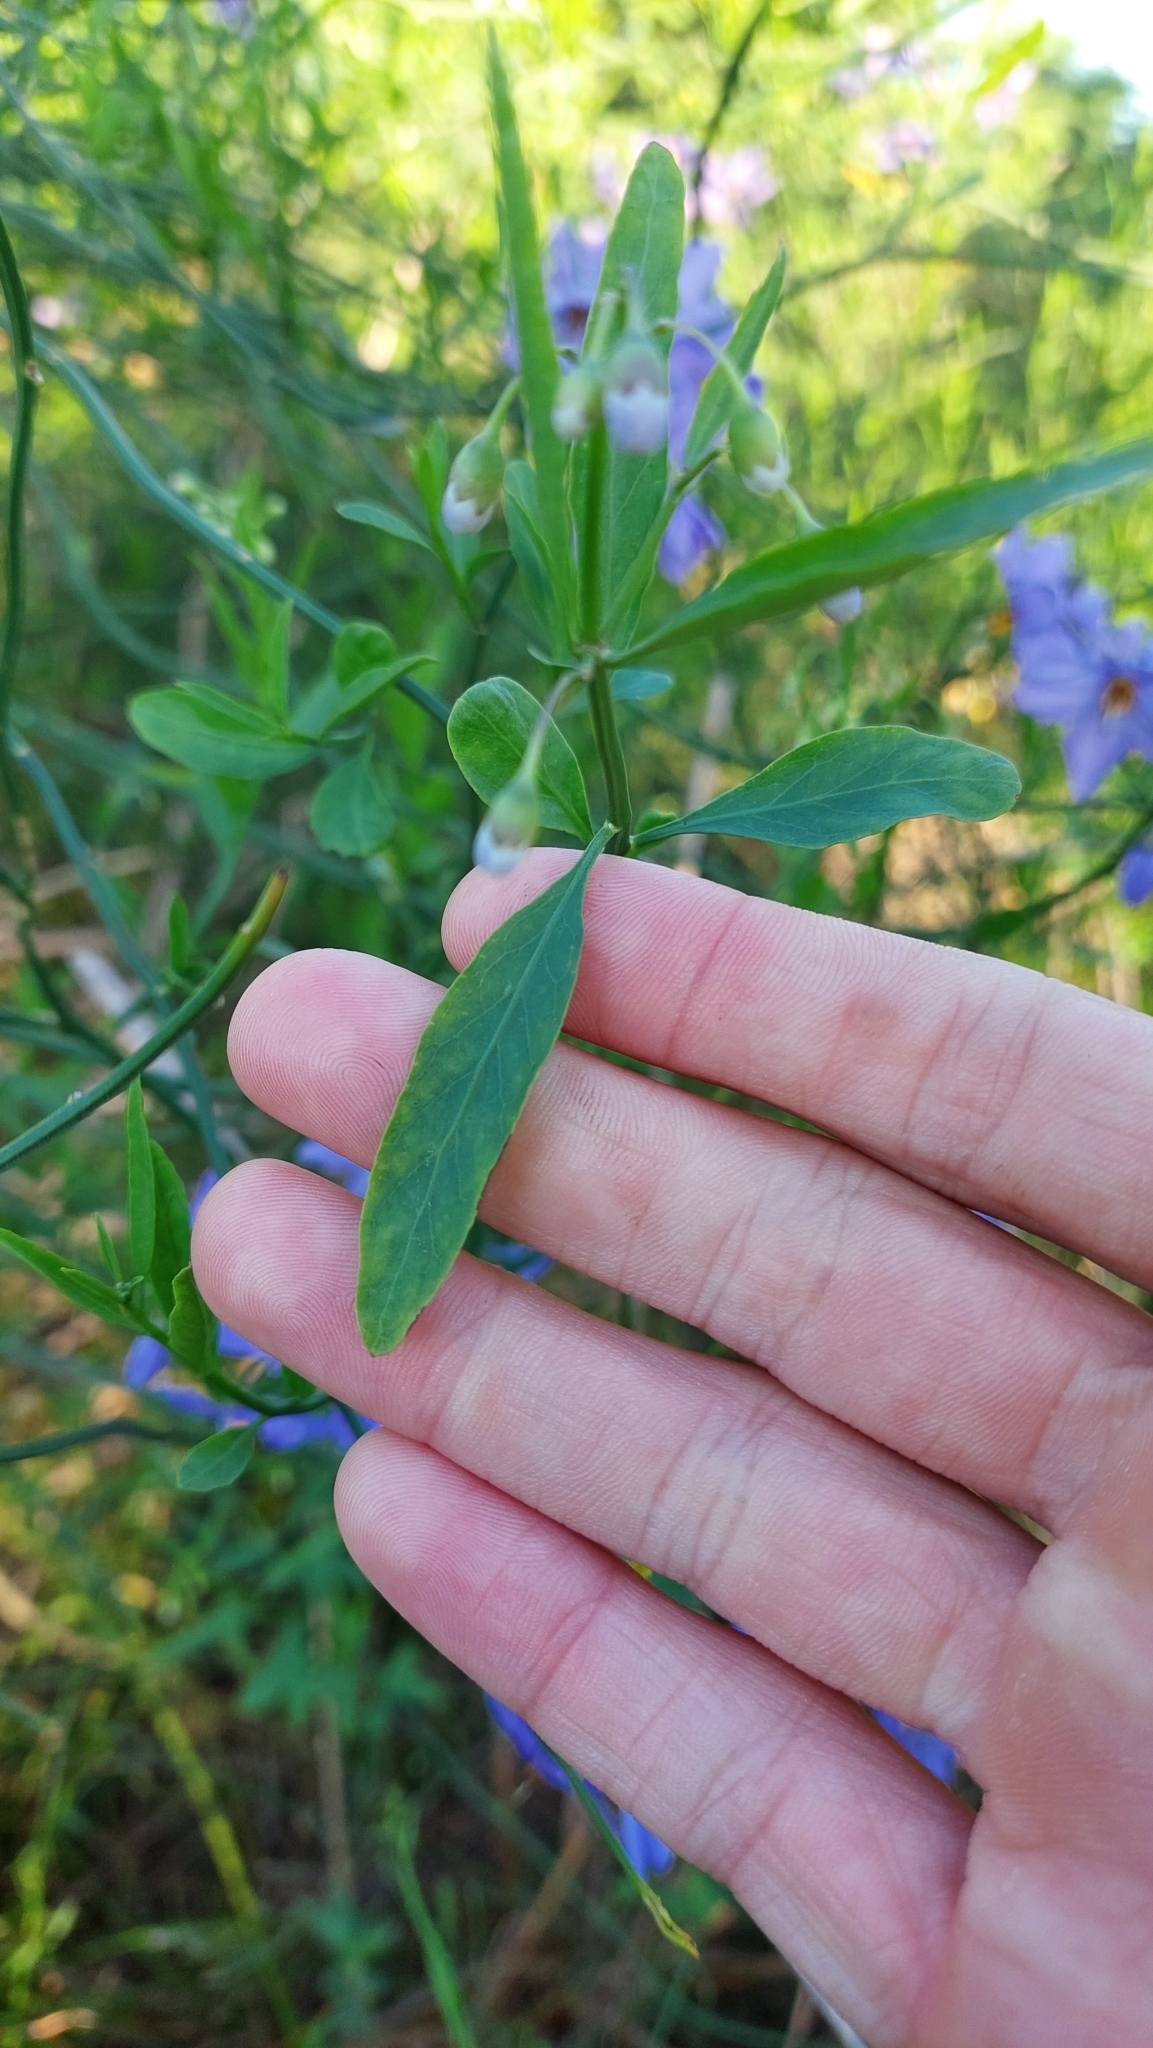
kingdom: Plantae
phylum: Tracheophyta
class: Magnoliopsida
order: Solanales
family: Solanaceae
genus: Solanum
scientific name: Solanum amygdalifolium
